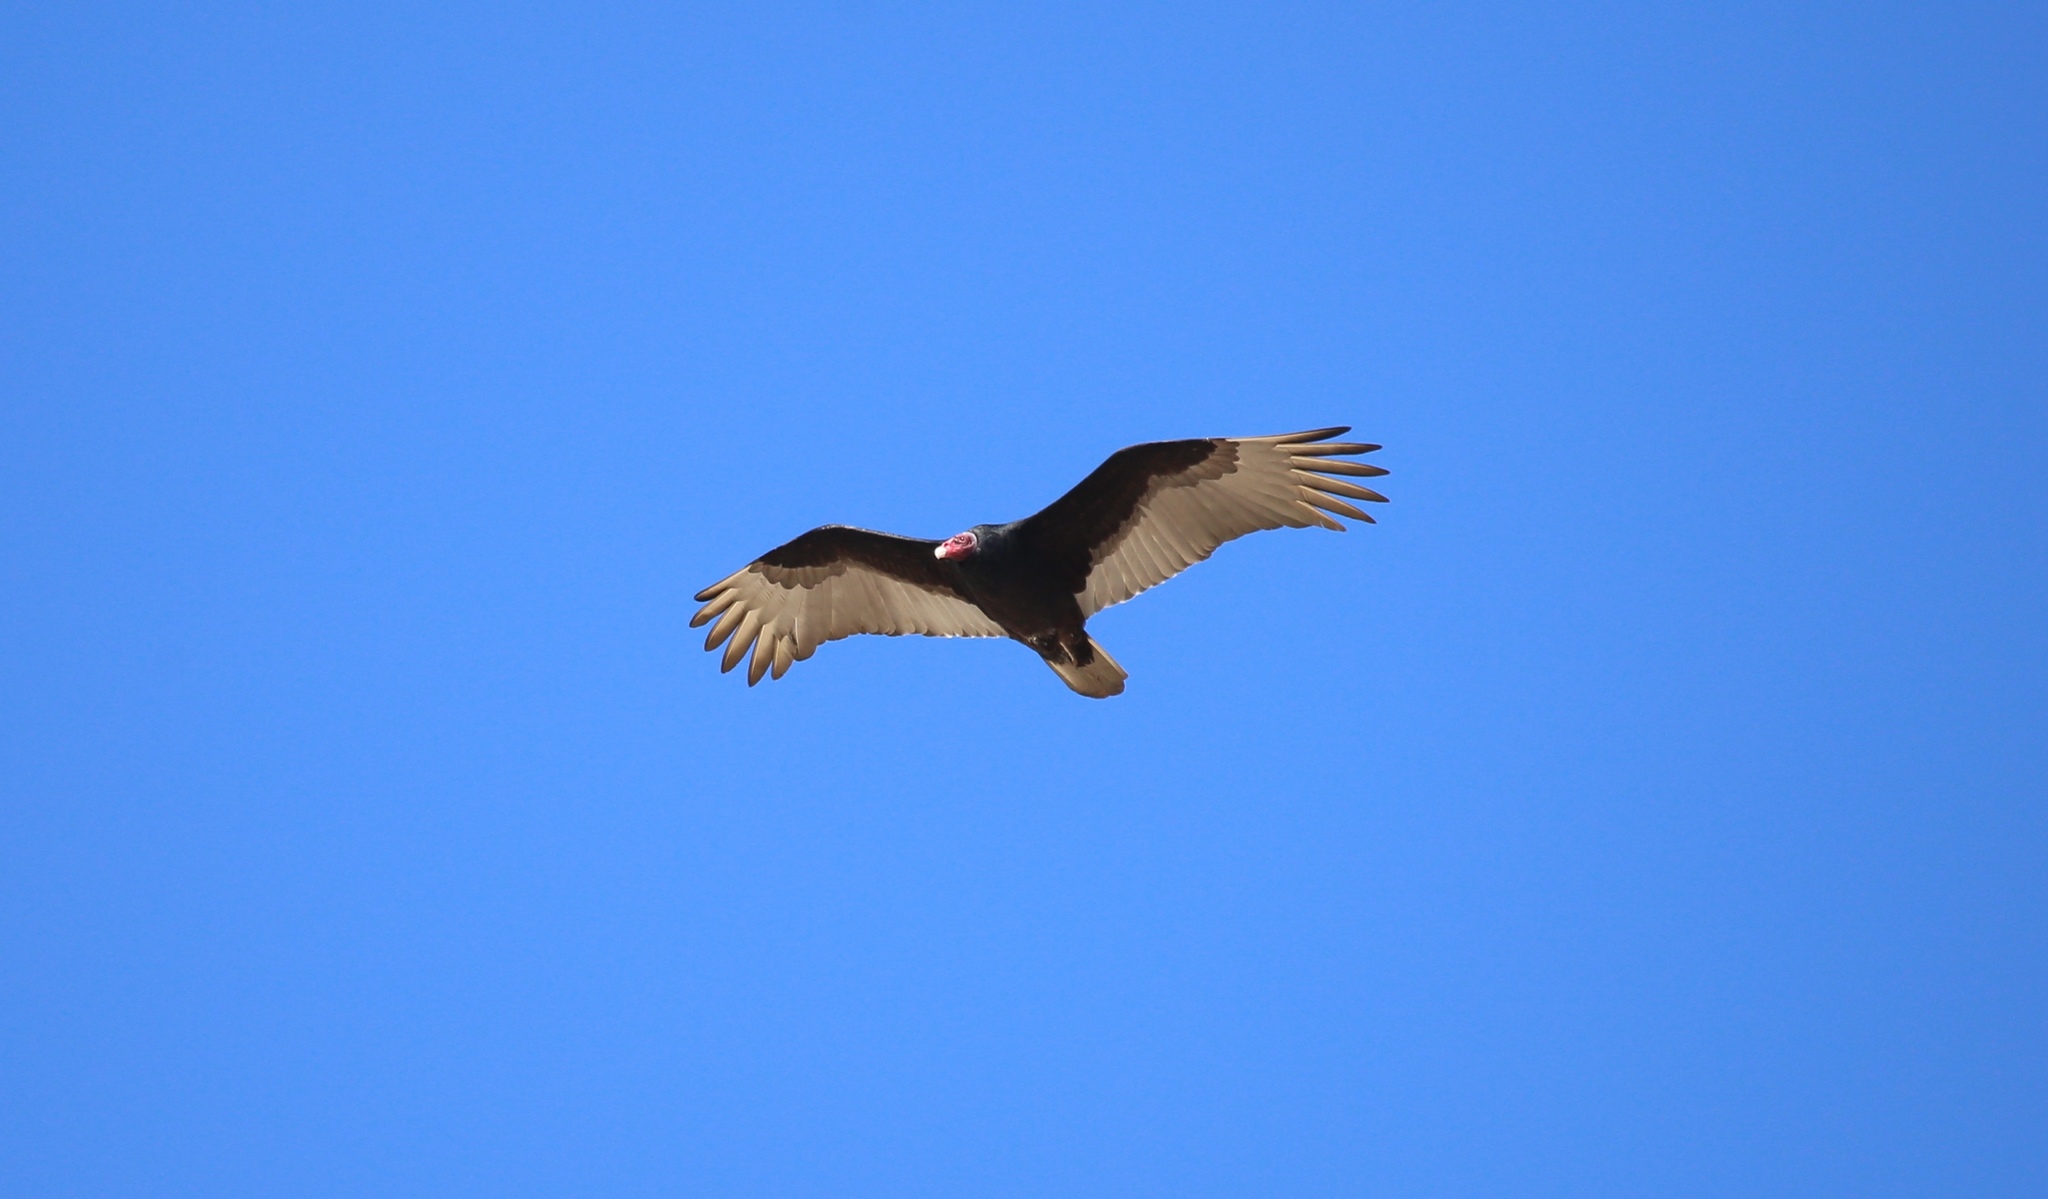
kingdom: Animalia
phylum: Chordata
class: Aves
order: Accipitriformes
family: Cathartidae
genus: Cathartes
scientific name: Cathartes aura
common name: Turkey vulture
